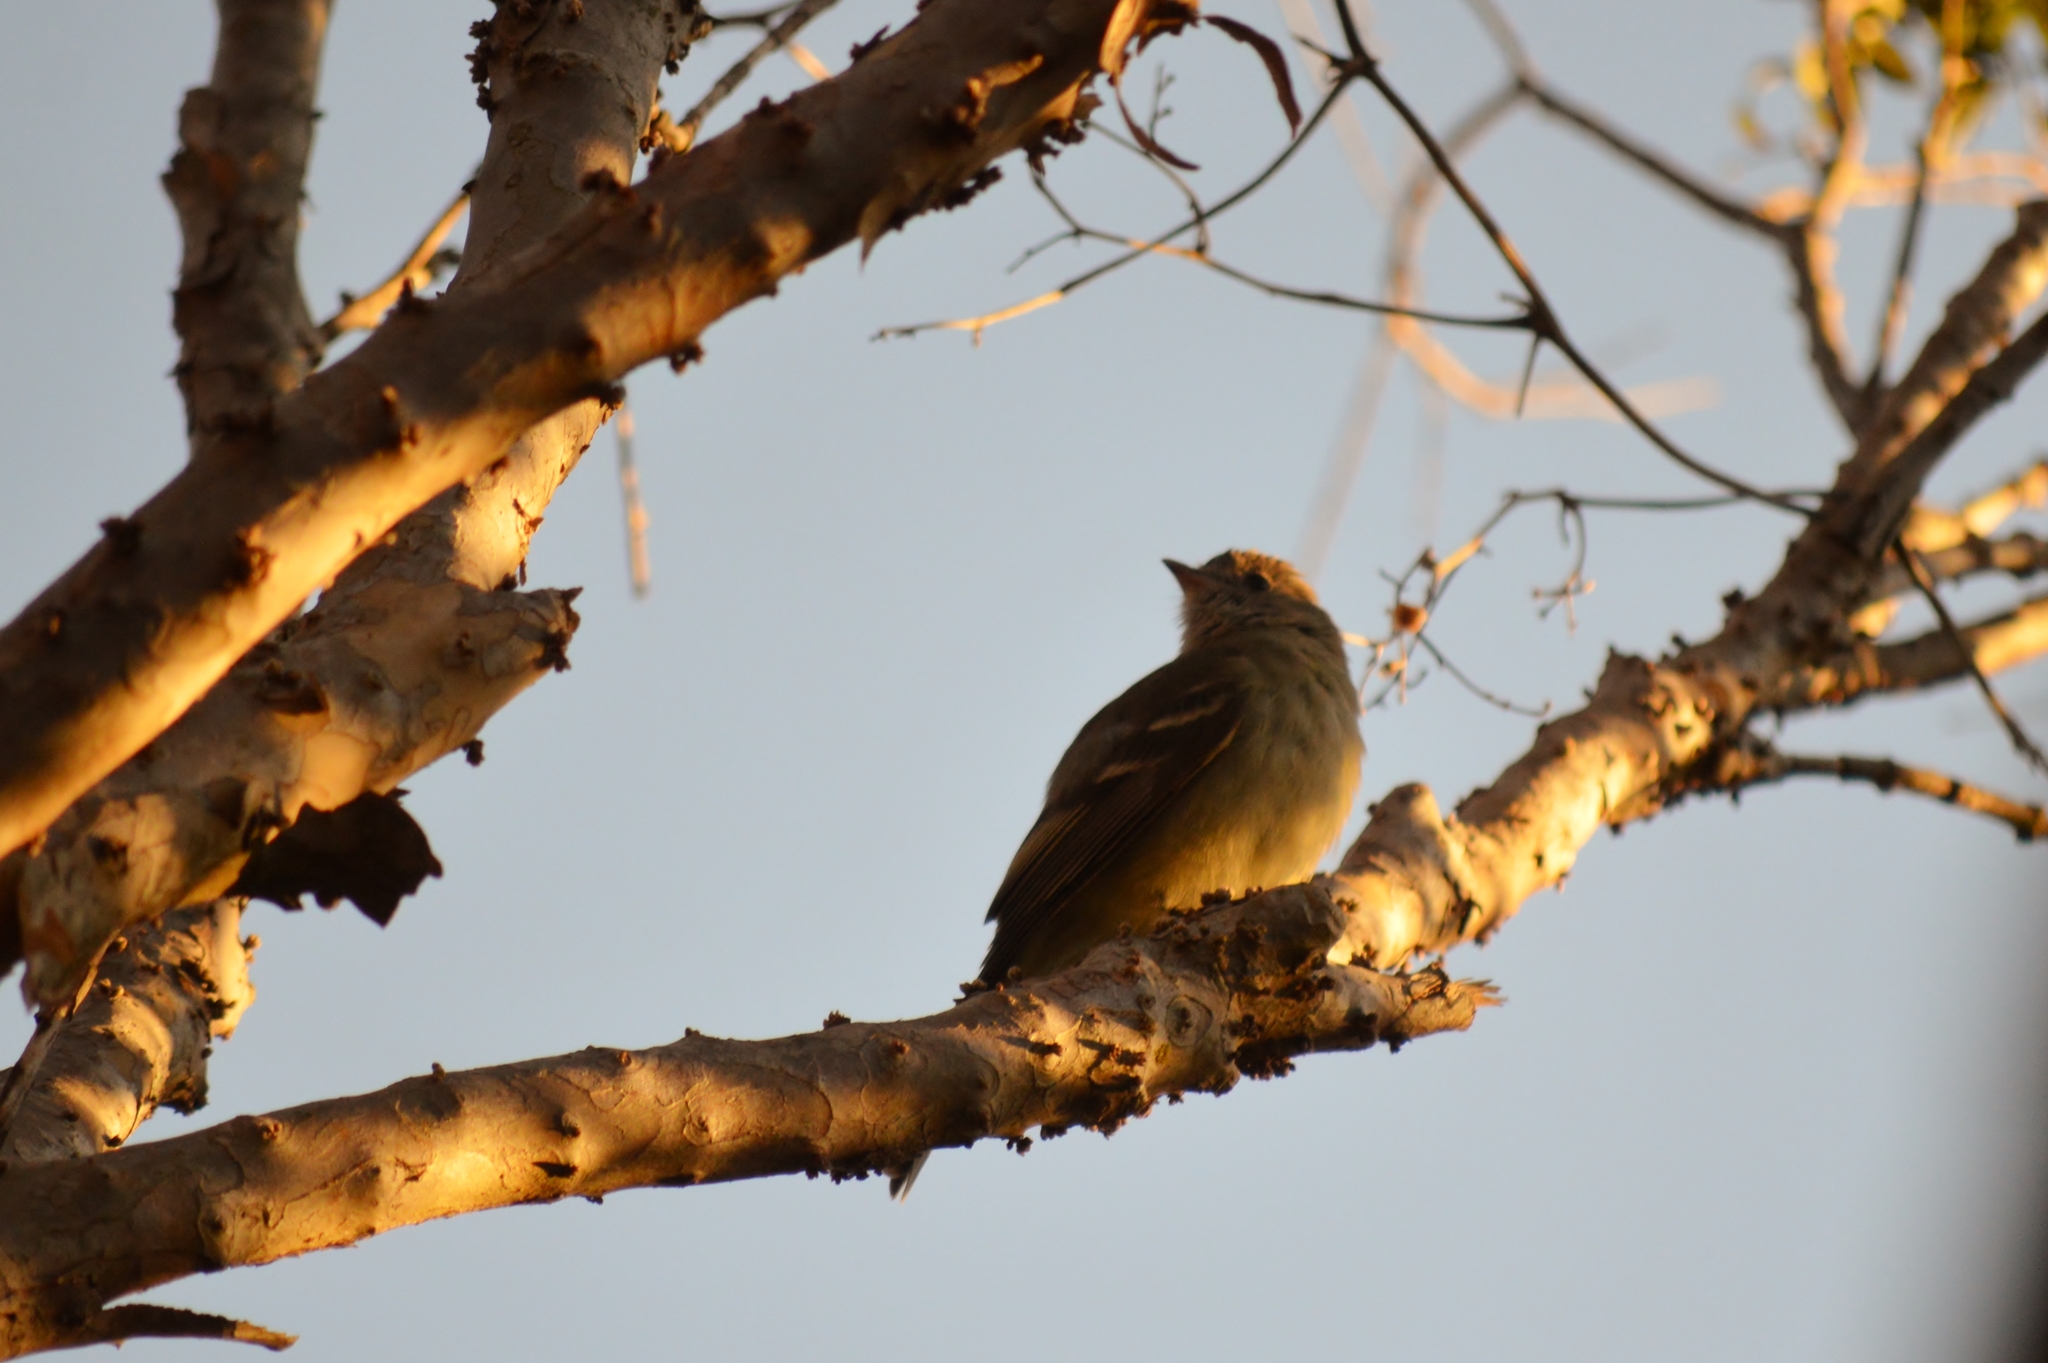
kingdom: Animalia
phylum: Chordata
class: Aves
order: Passeriformes
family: Tyrannidae
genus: Elaenia
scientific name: Elaenia flavogaster
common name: Yellow-bellied elaenia
